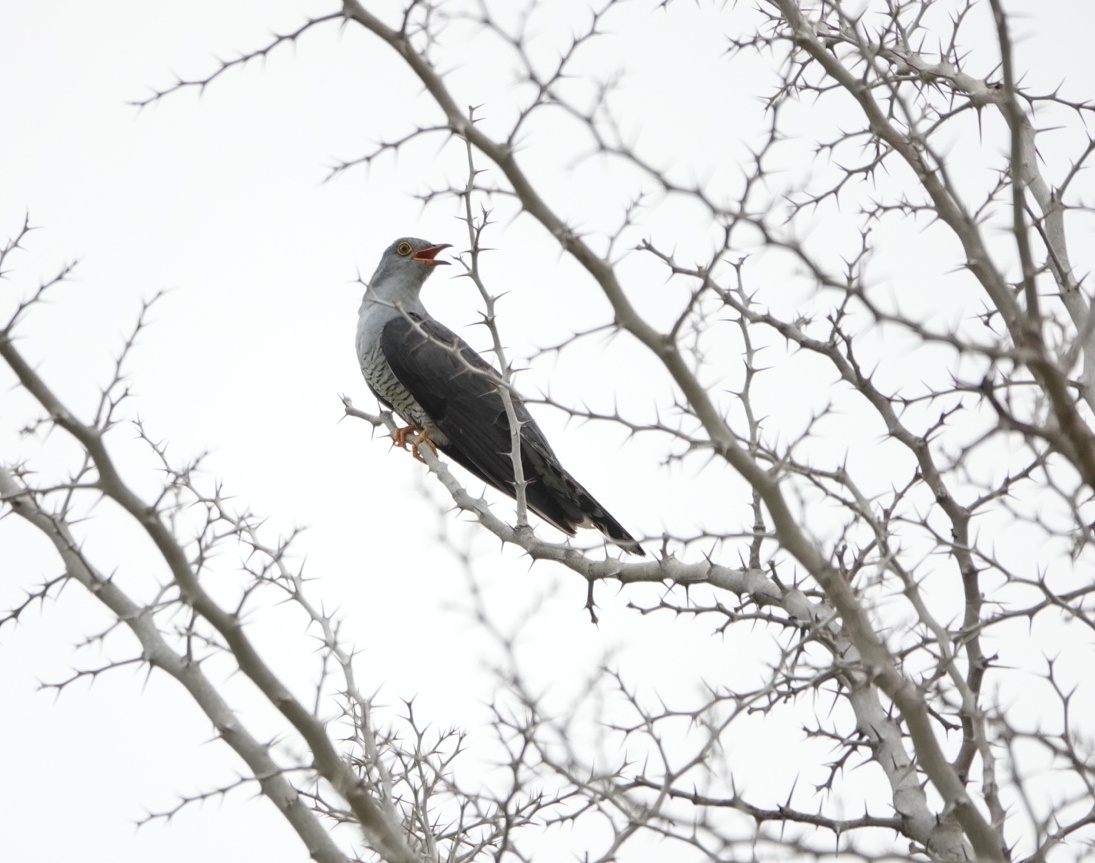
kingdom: Animalia
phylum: Chordata
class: Aves
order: Cuculiformes
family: Cuculidae
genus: Cuculus
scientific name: Cuculus canorus
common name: Common cuckoo
